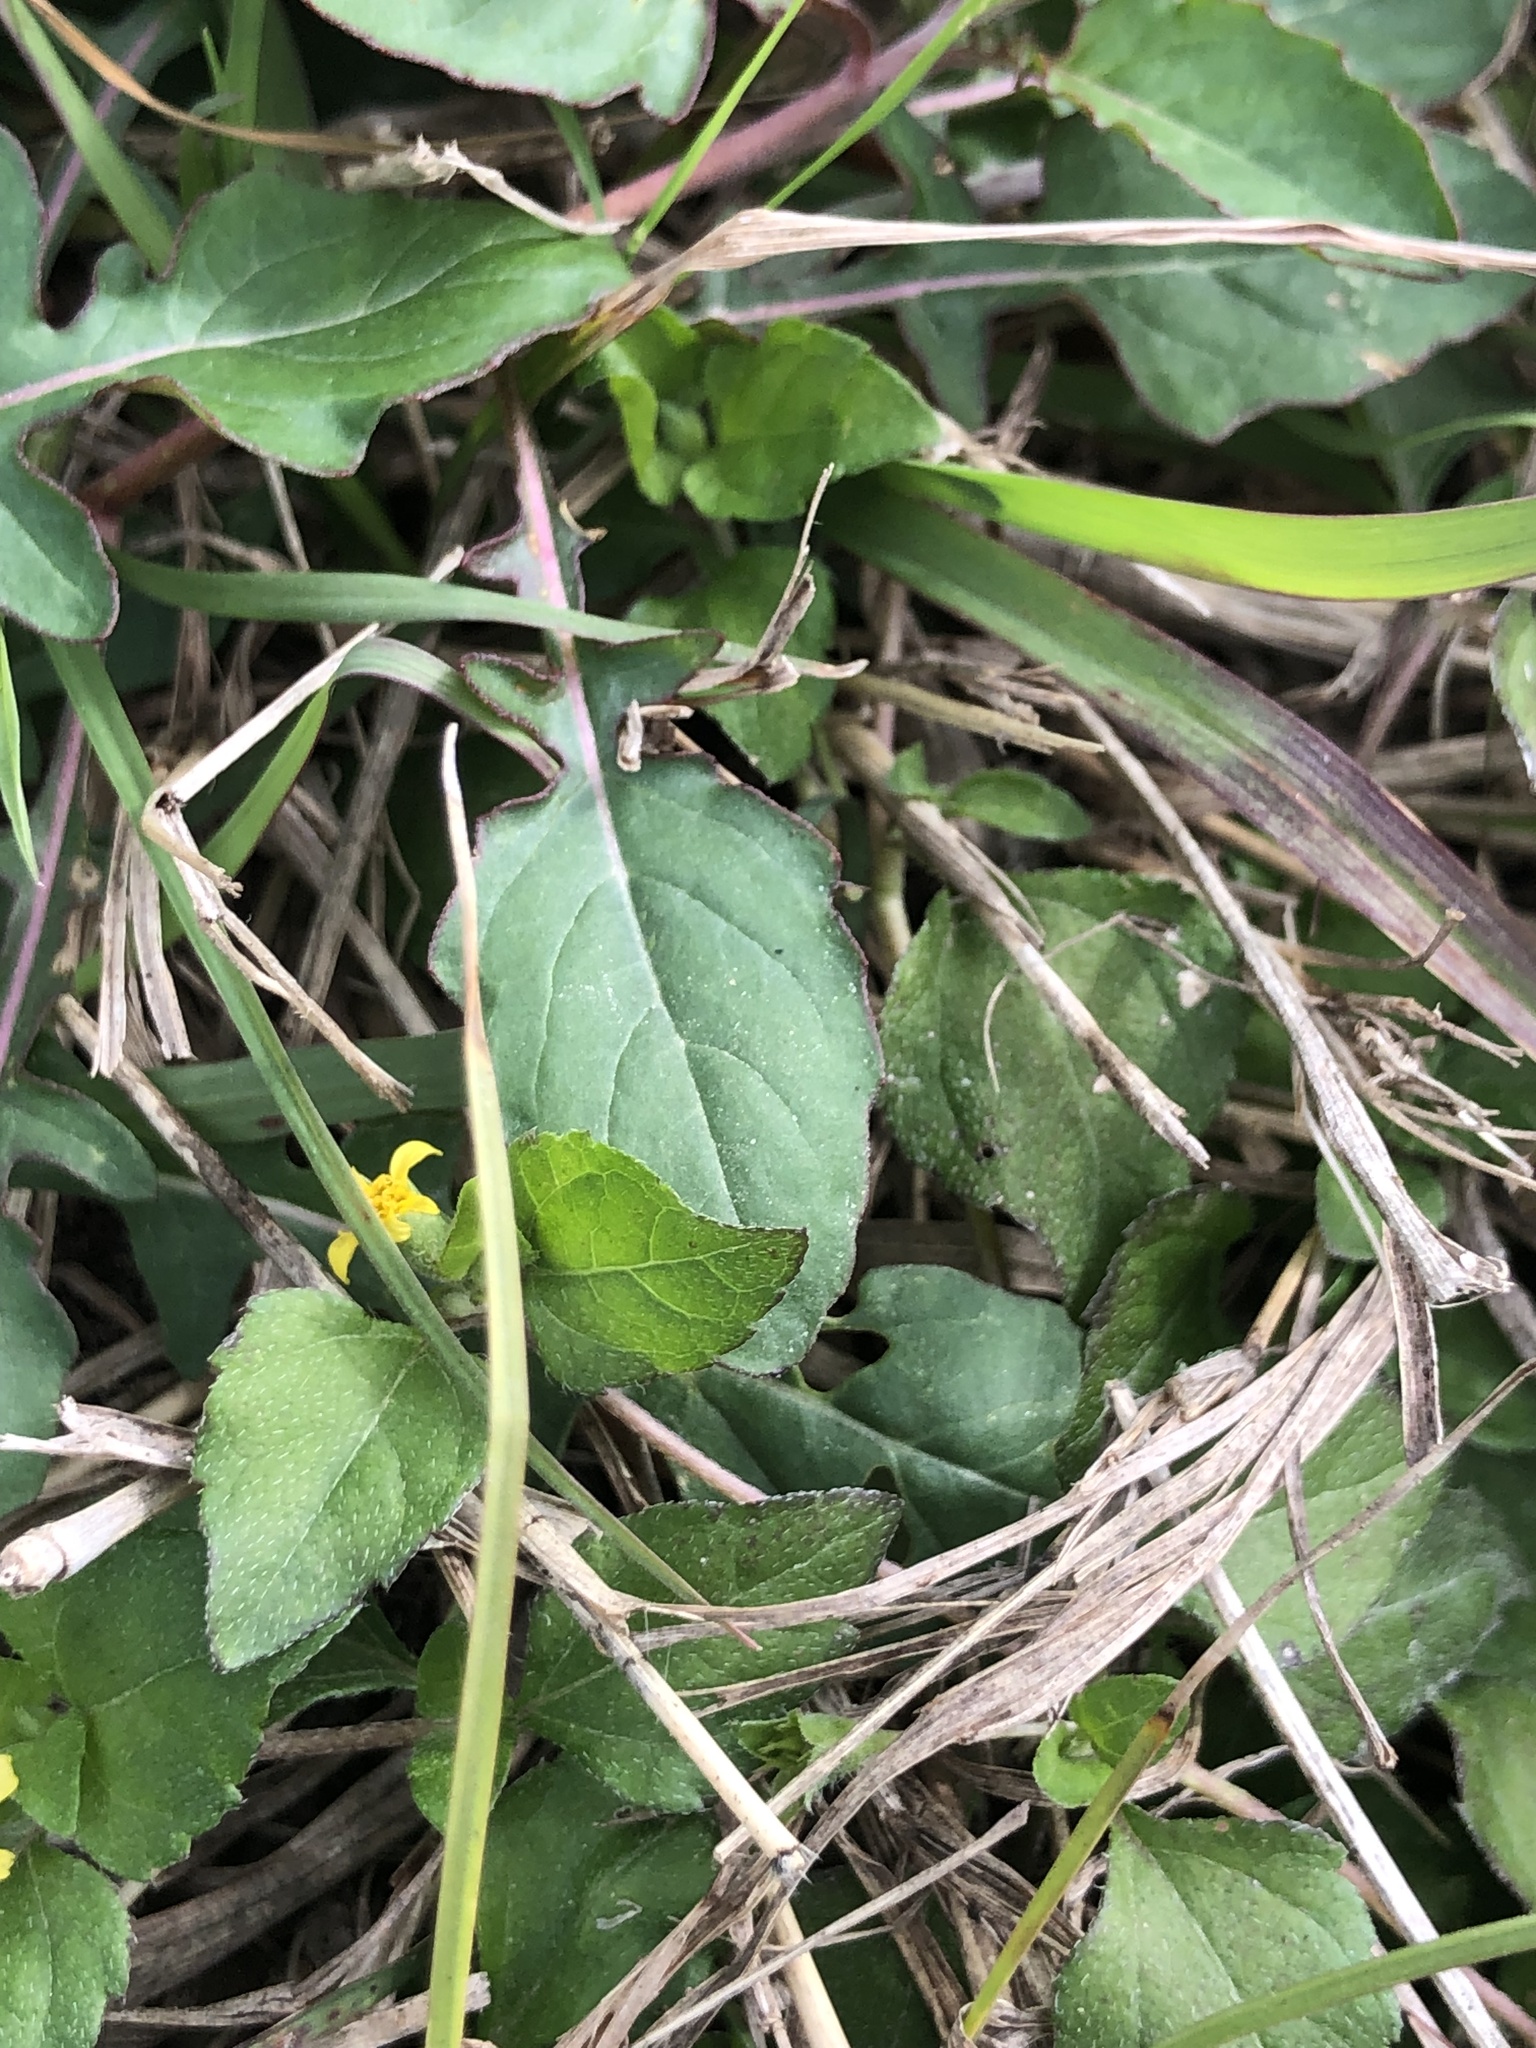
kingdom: Plantae
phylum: Tracheophyta
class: Magnoliopsida
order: Asterales
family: Asteraceae
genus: Calyptocarpus
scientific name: Calyptocarpus vialis
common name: Straggler daisy
